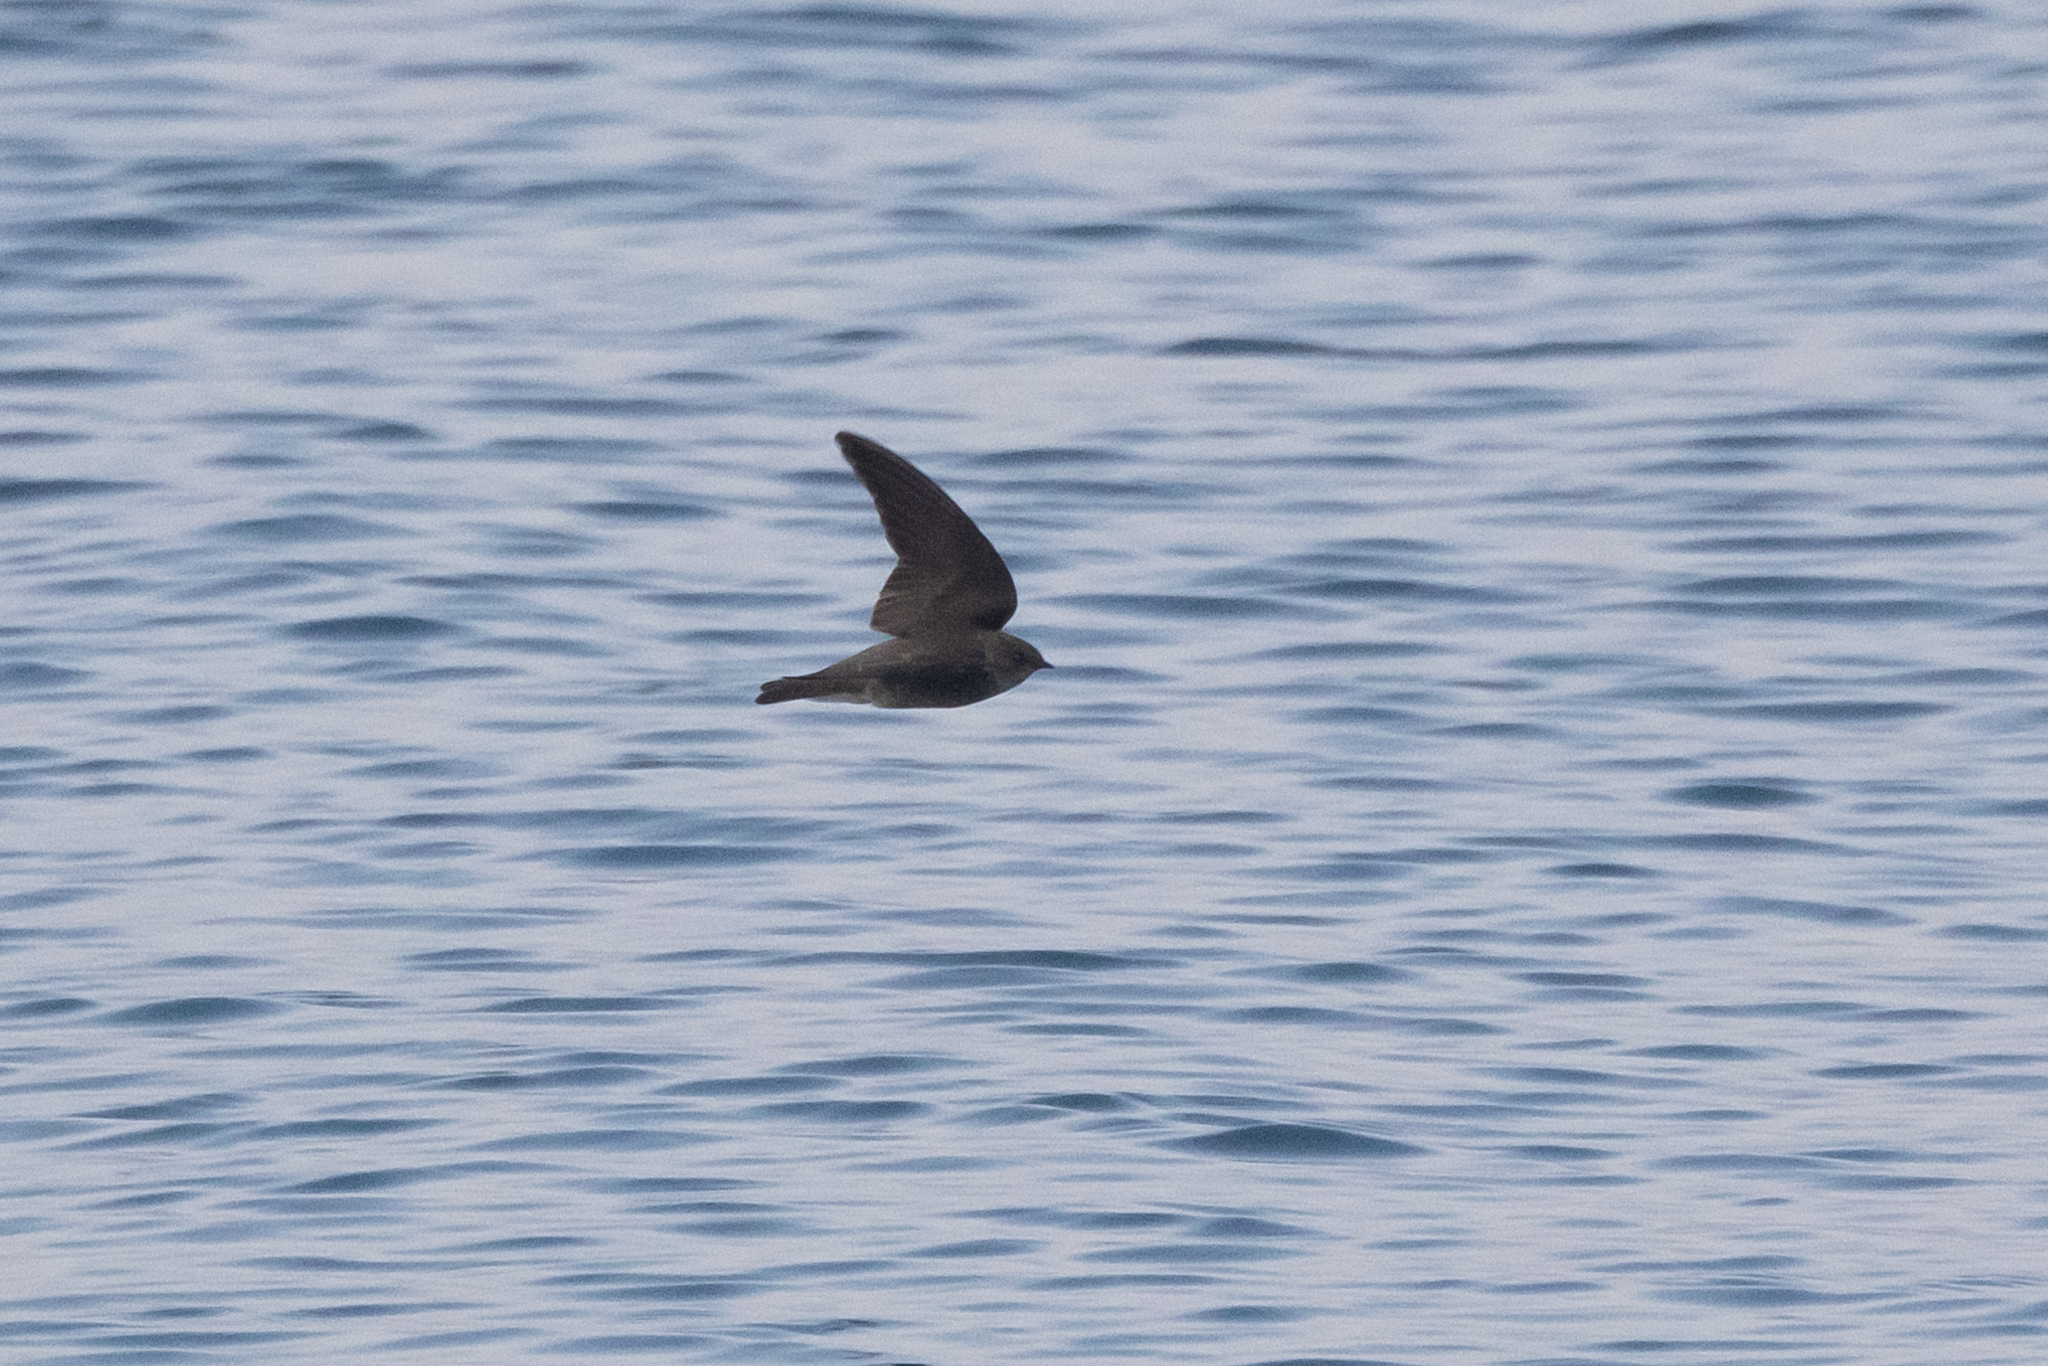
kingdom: Animalia
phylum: Chordata
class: Aves
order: Passeriformes
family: Hirundinidae
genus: Stelgidopteryx
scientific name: Stelgidopteryx serripennis
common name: Northern rough-winged swallow
